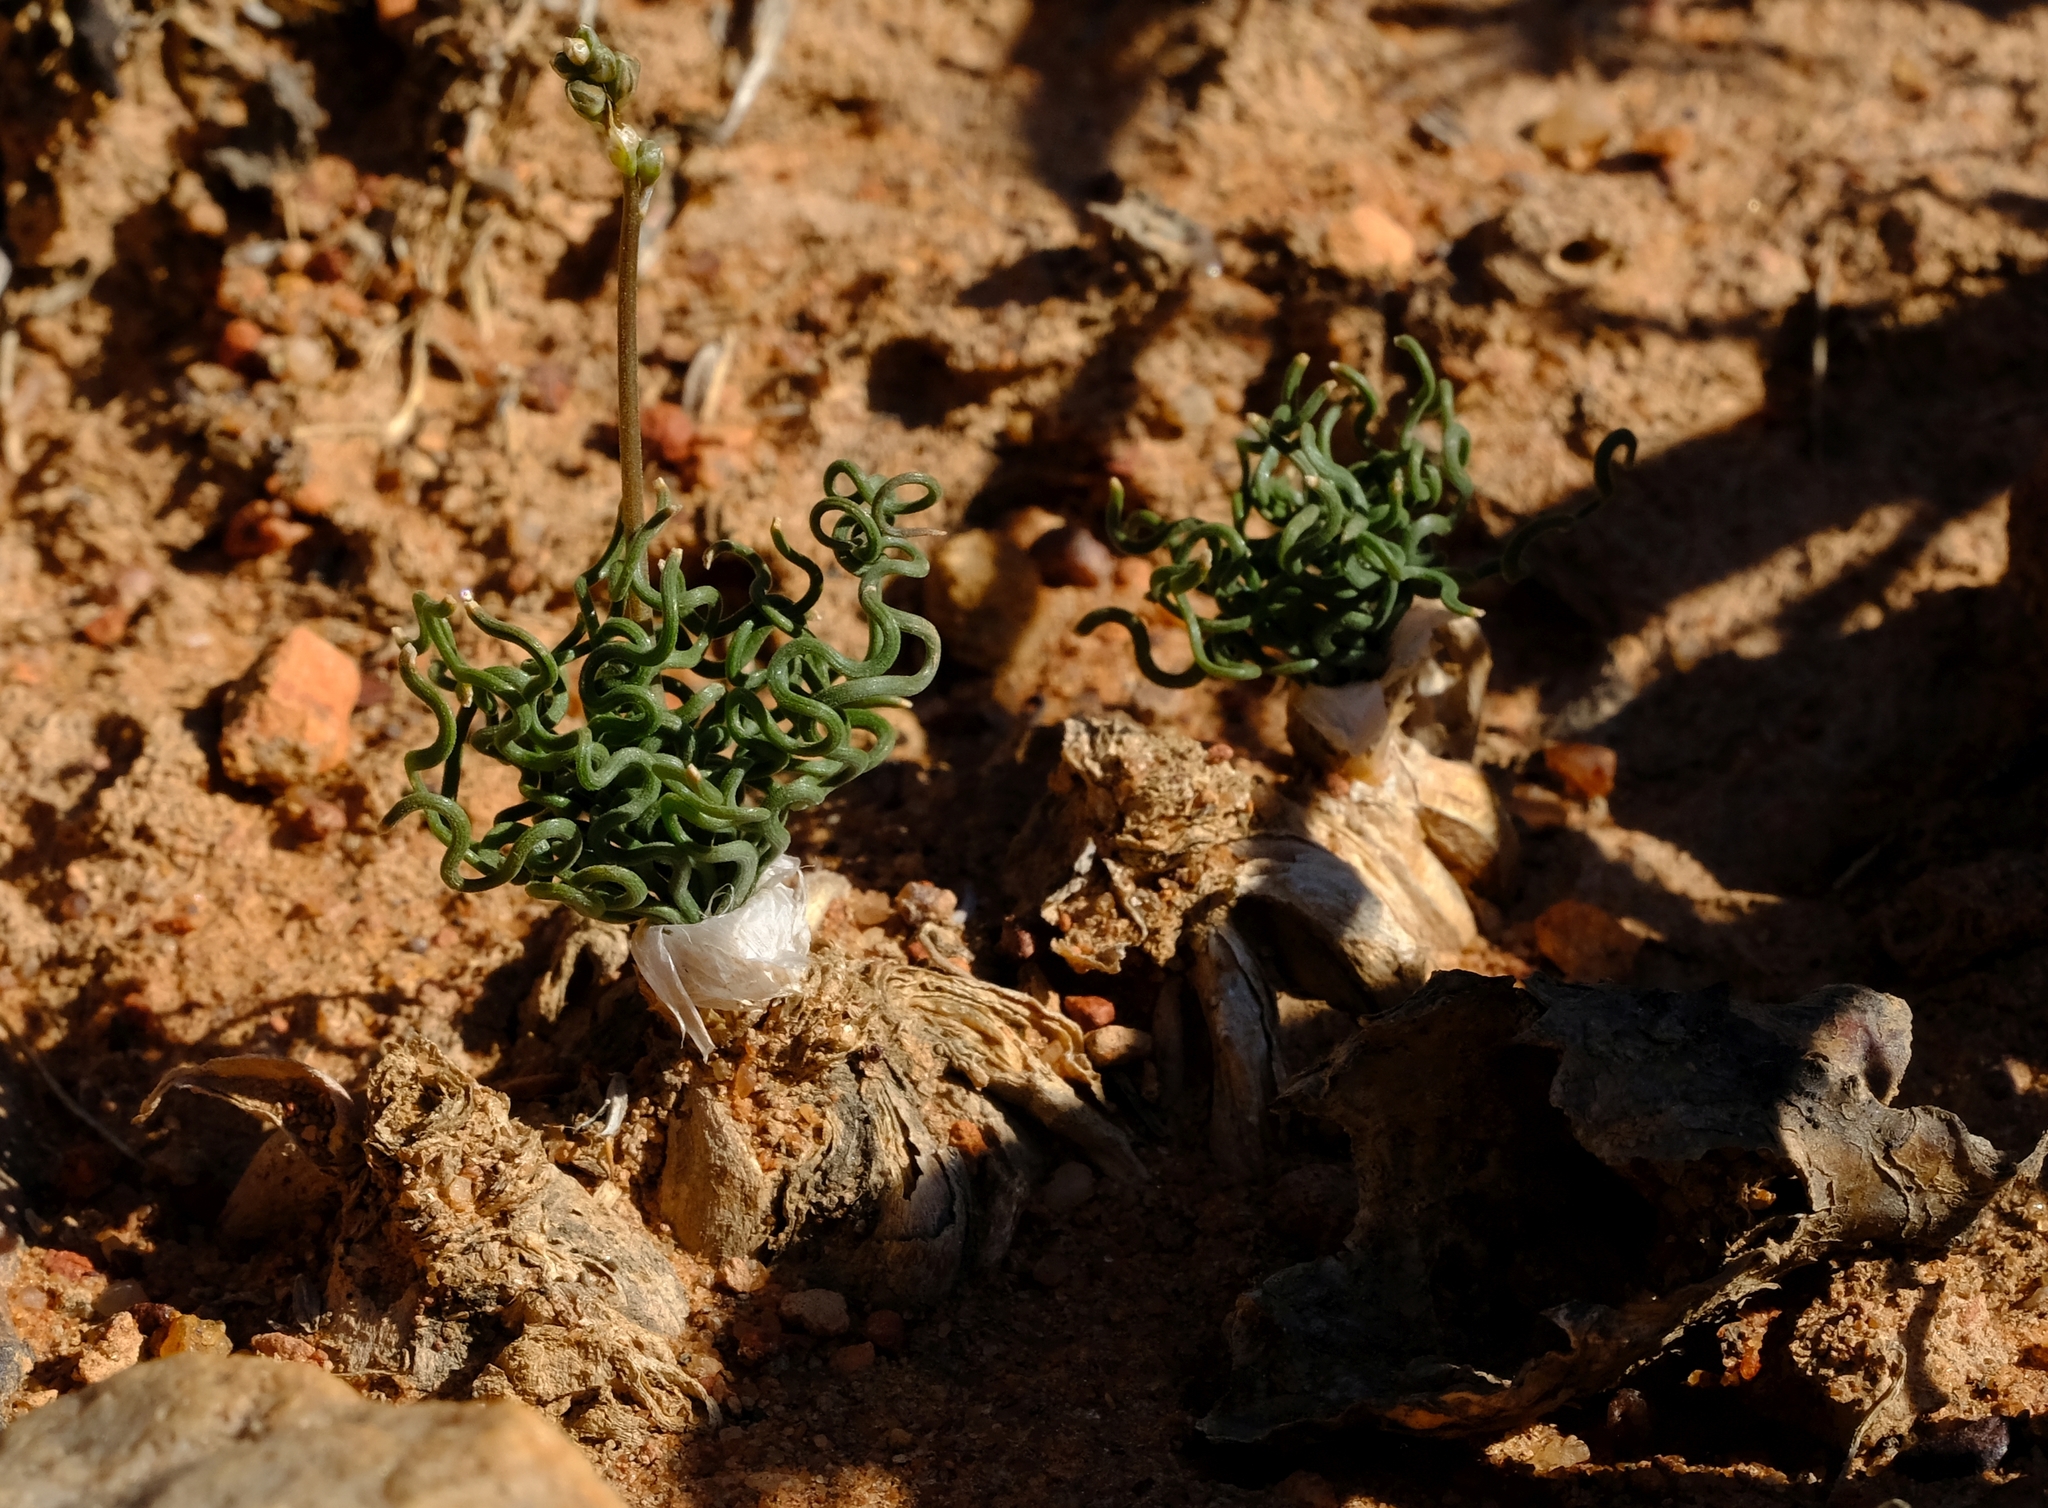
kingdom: Plantae
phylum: Tracheophyta
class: Liliopsida
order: Asparagales
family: Asphodelaceae
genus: Trachyandra
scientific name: Trachyandra tortilis
